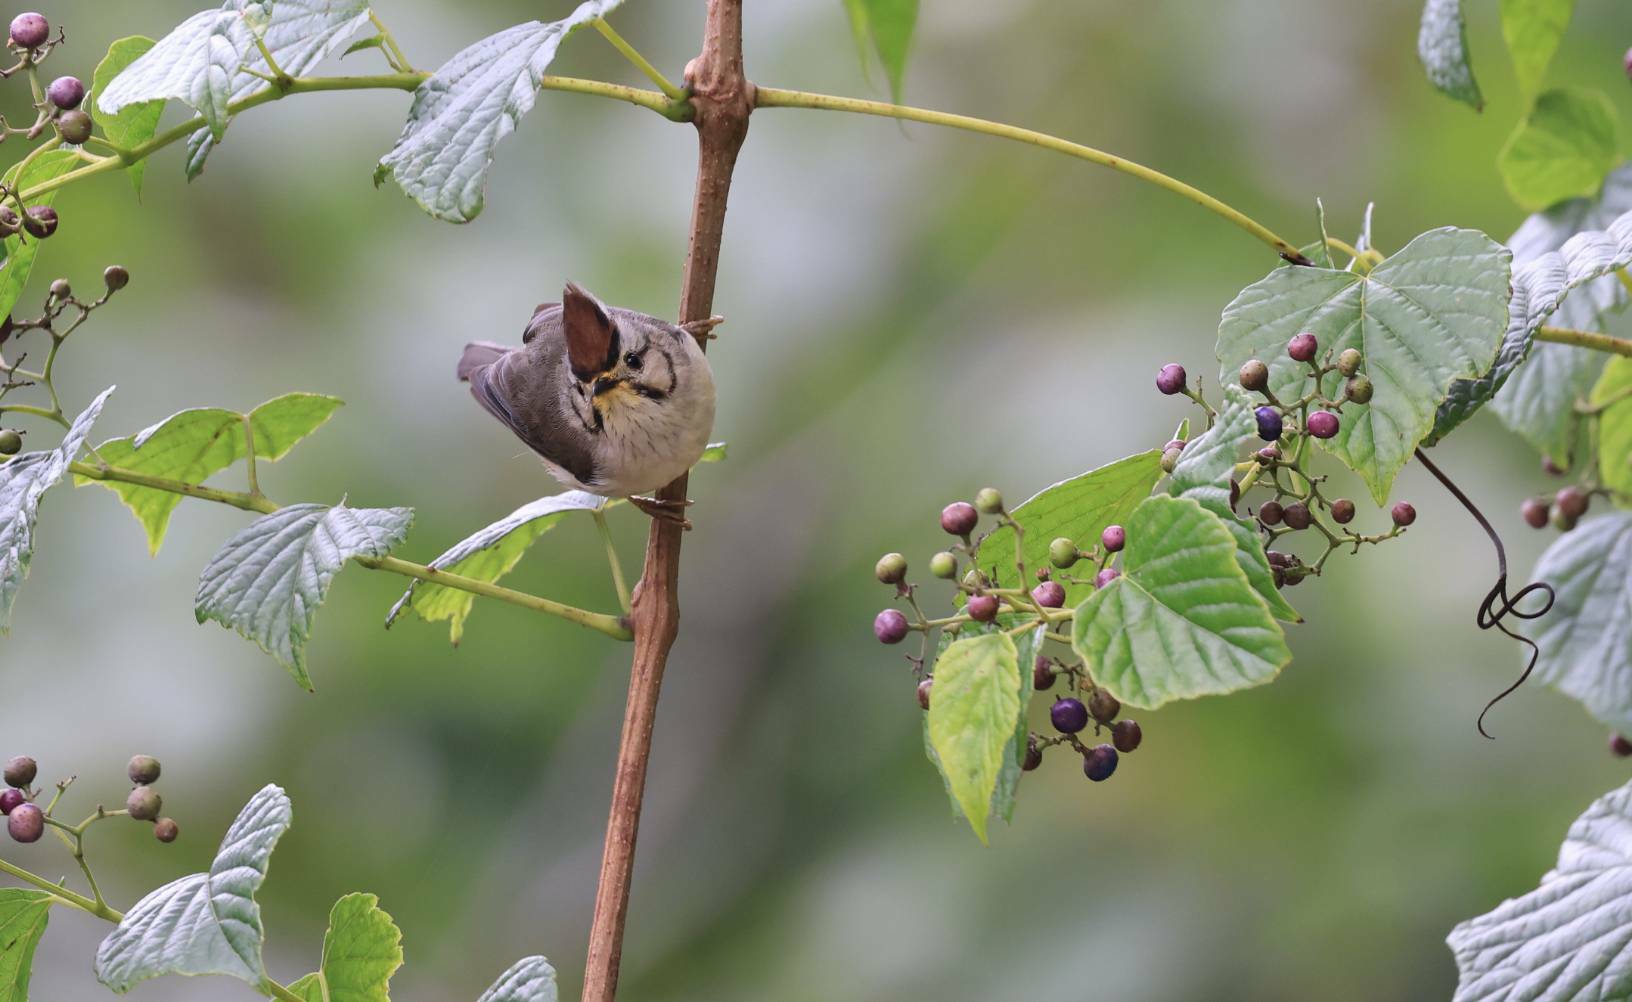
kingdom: Animalia
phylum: Chordata
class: Aves
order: Passeriformes
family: Zosteropidae
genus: Yuhina
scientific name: Yuhina brunneiceps
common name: Taiwan yuhina
